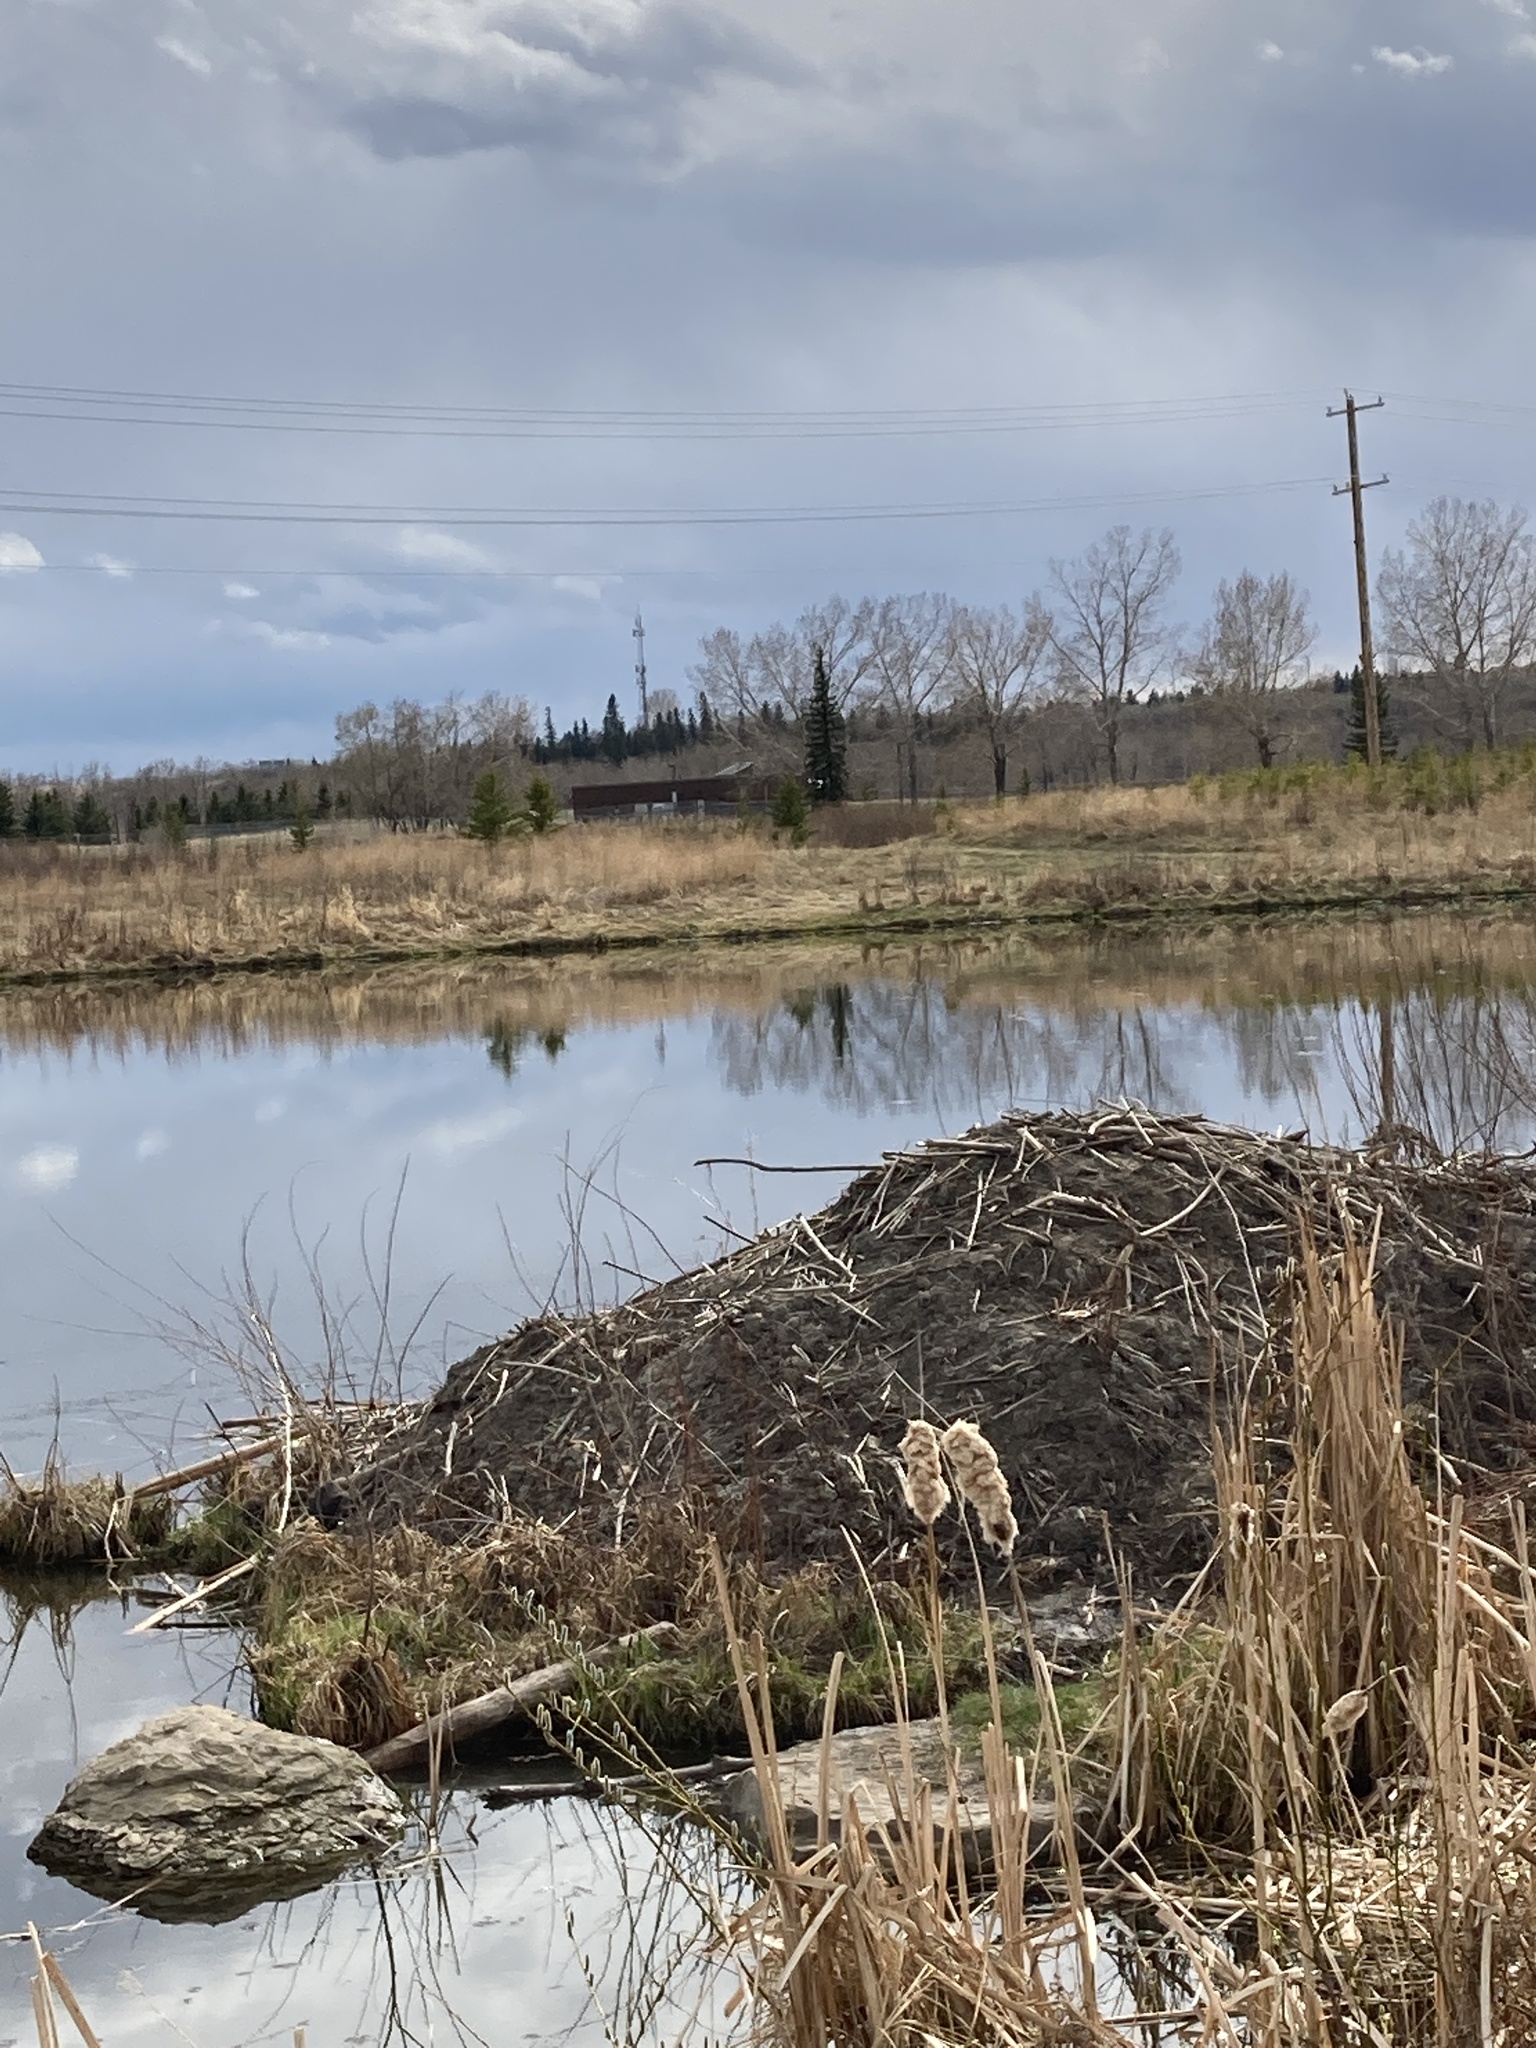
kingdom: Animalia
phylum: Chordata
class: Mammalia
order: Rodentia
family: Castoridae
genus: Castor
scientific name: Castor canadensis
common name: American beaver
